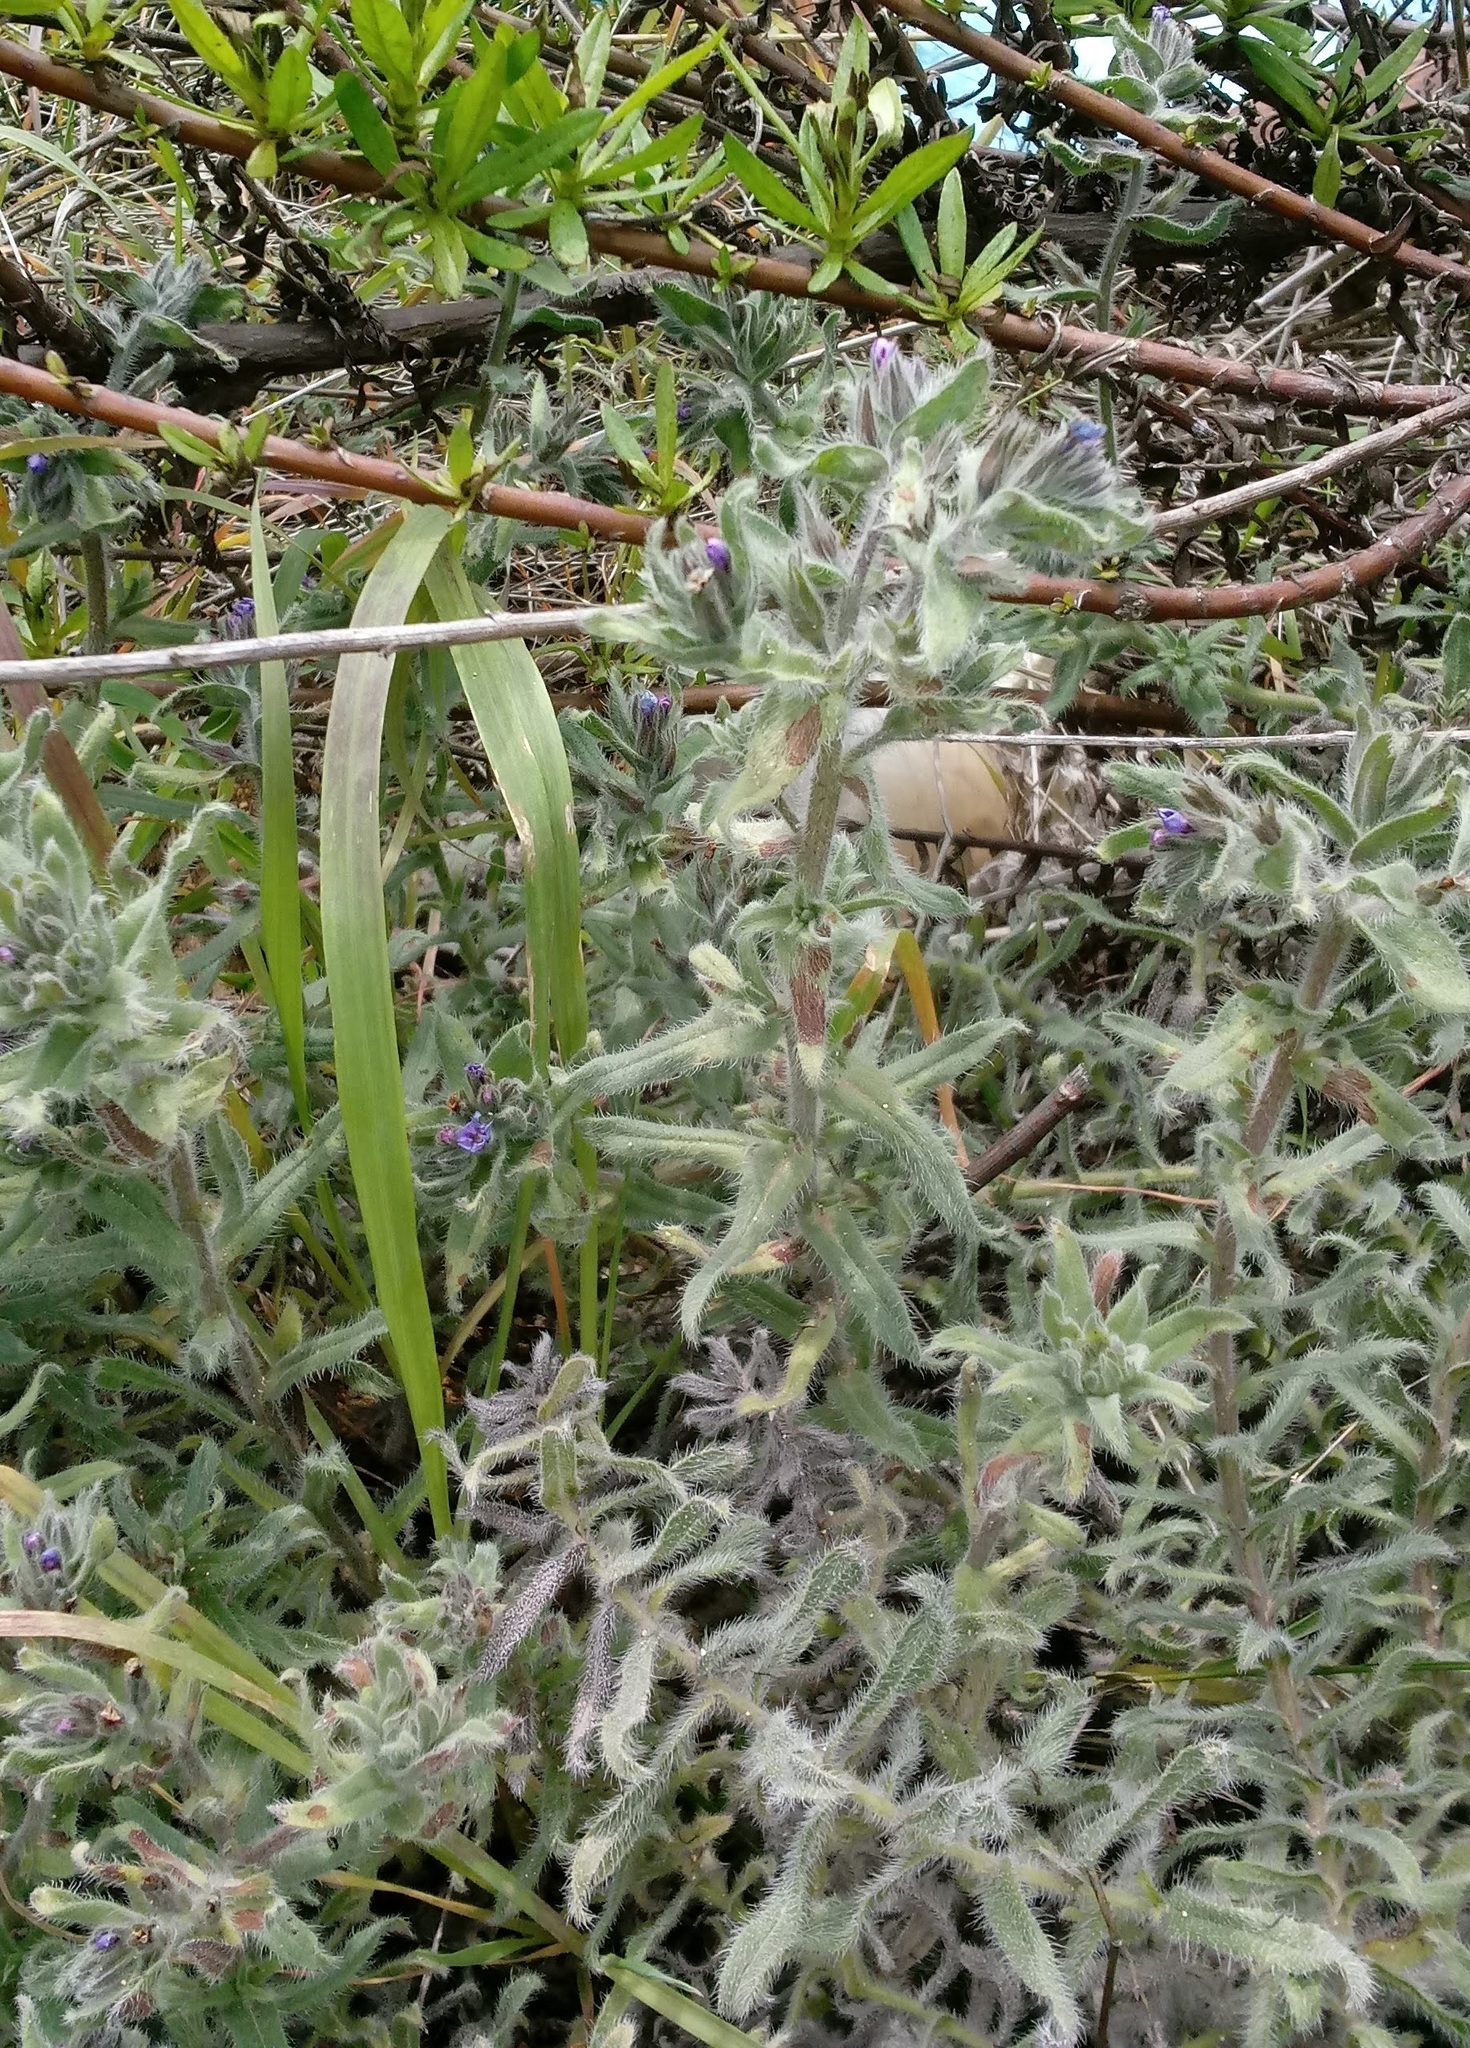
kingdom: Plantae
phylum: Tracheophyta
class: Magnoliopsida
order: Boraginales
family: Boraginaceae
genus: Echium
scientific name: Echium angustifolium
